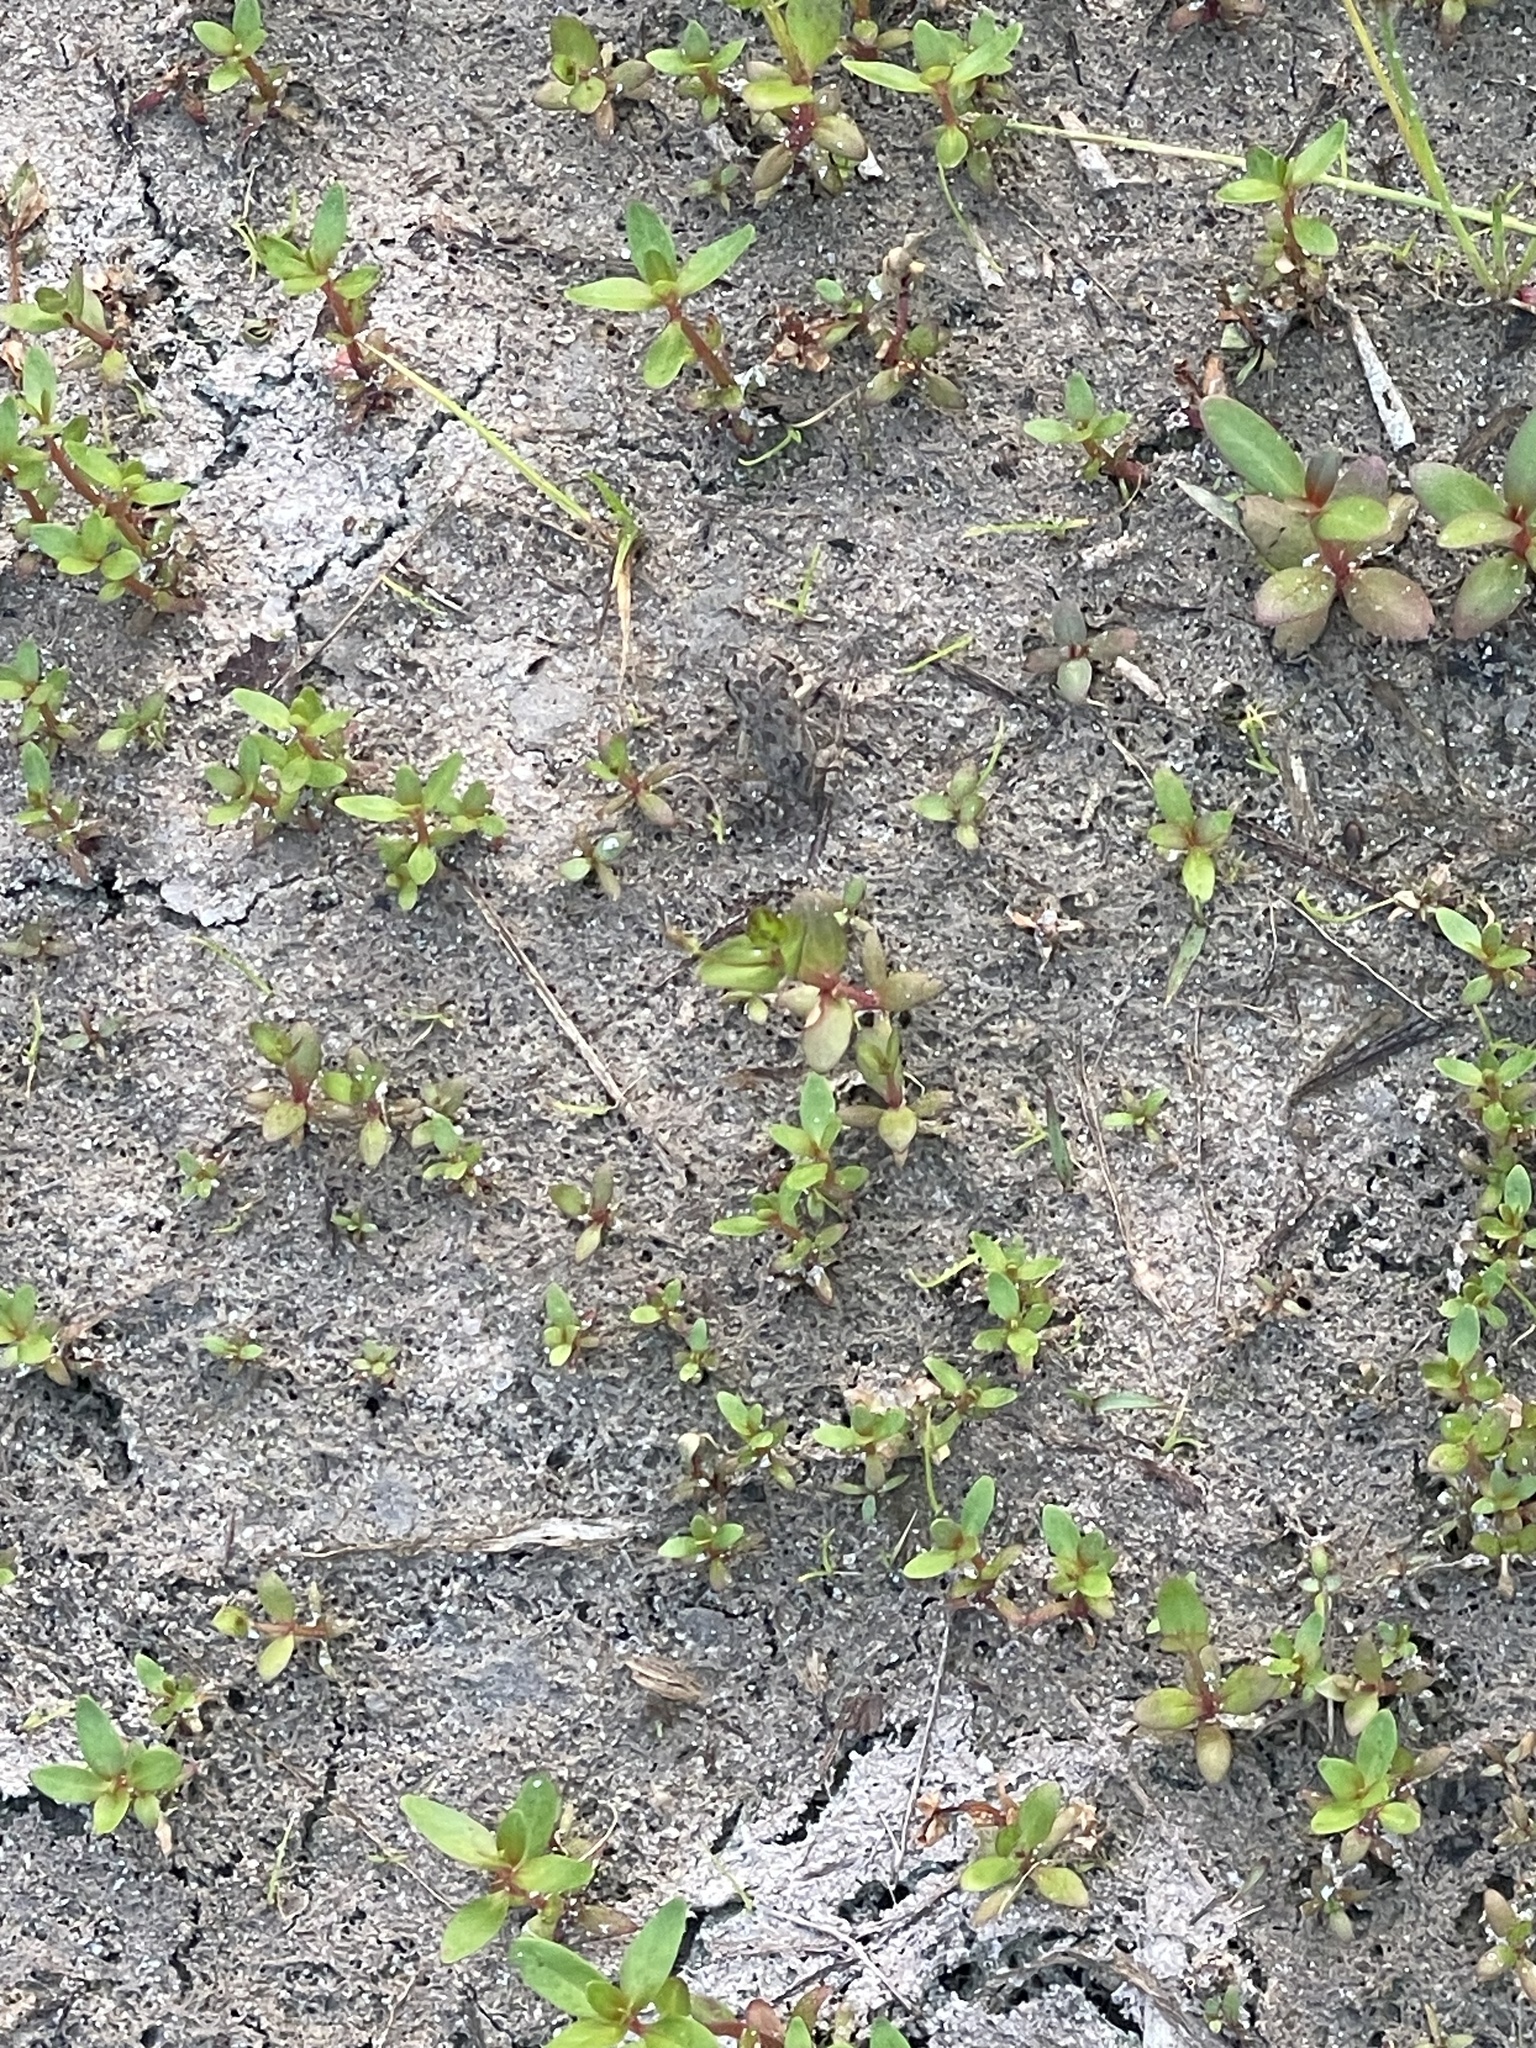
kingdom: Animalia
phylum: Chordata
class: Amphibia
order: Anura
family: Bufonidae
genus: Anaxyrus
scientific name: Anaxyrus fowleri
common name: Fowler's toad
